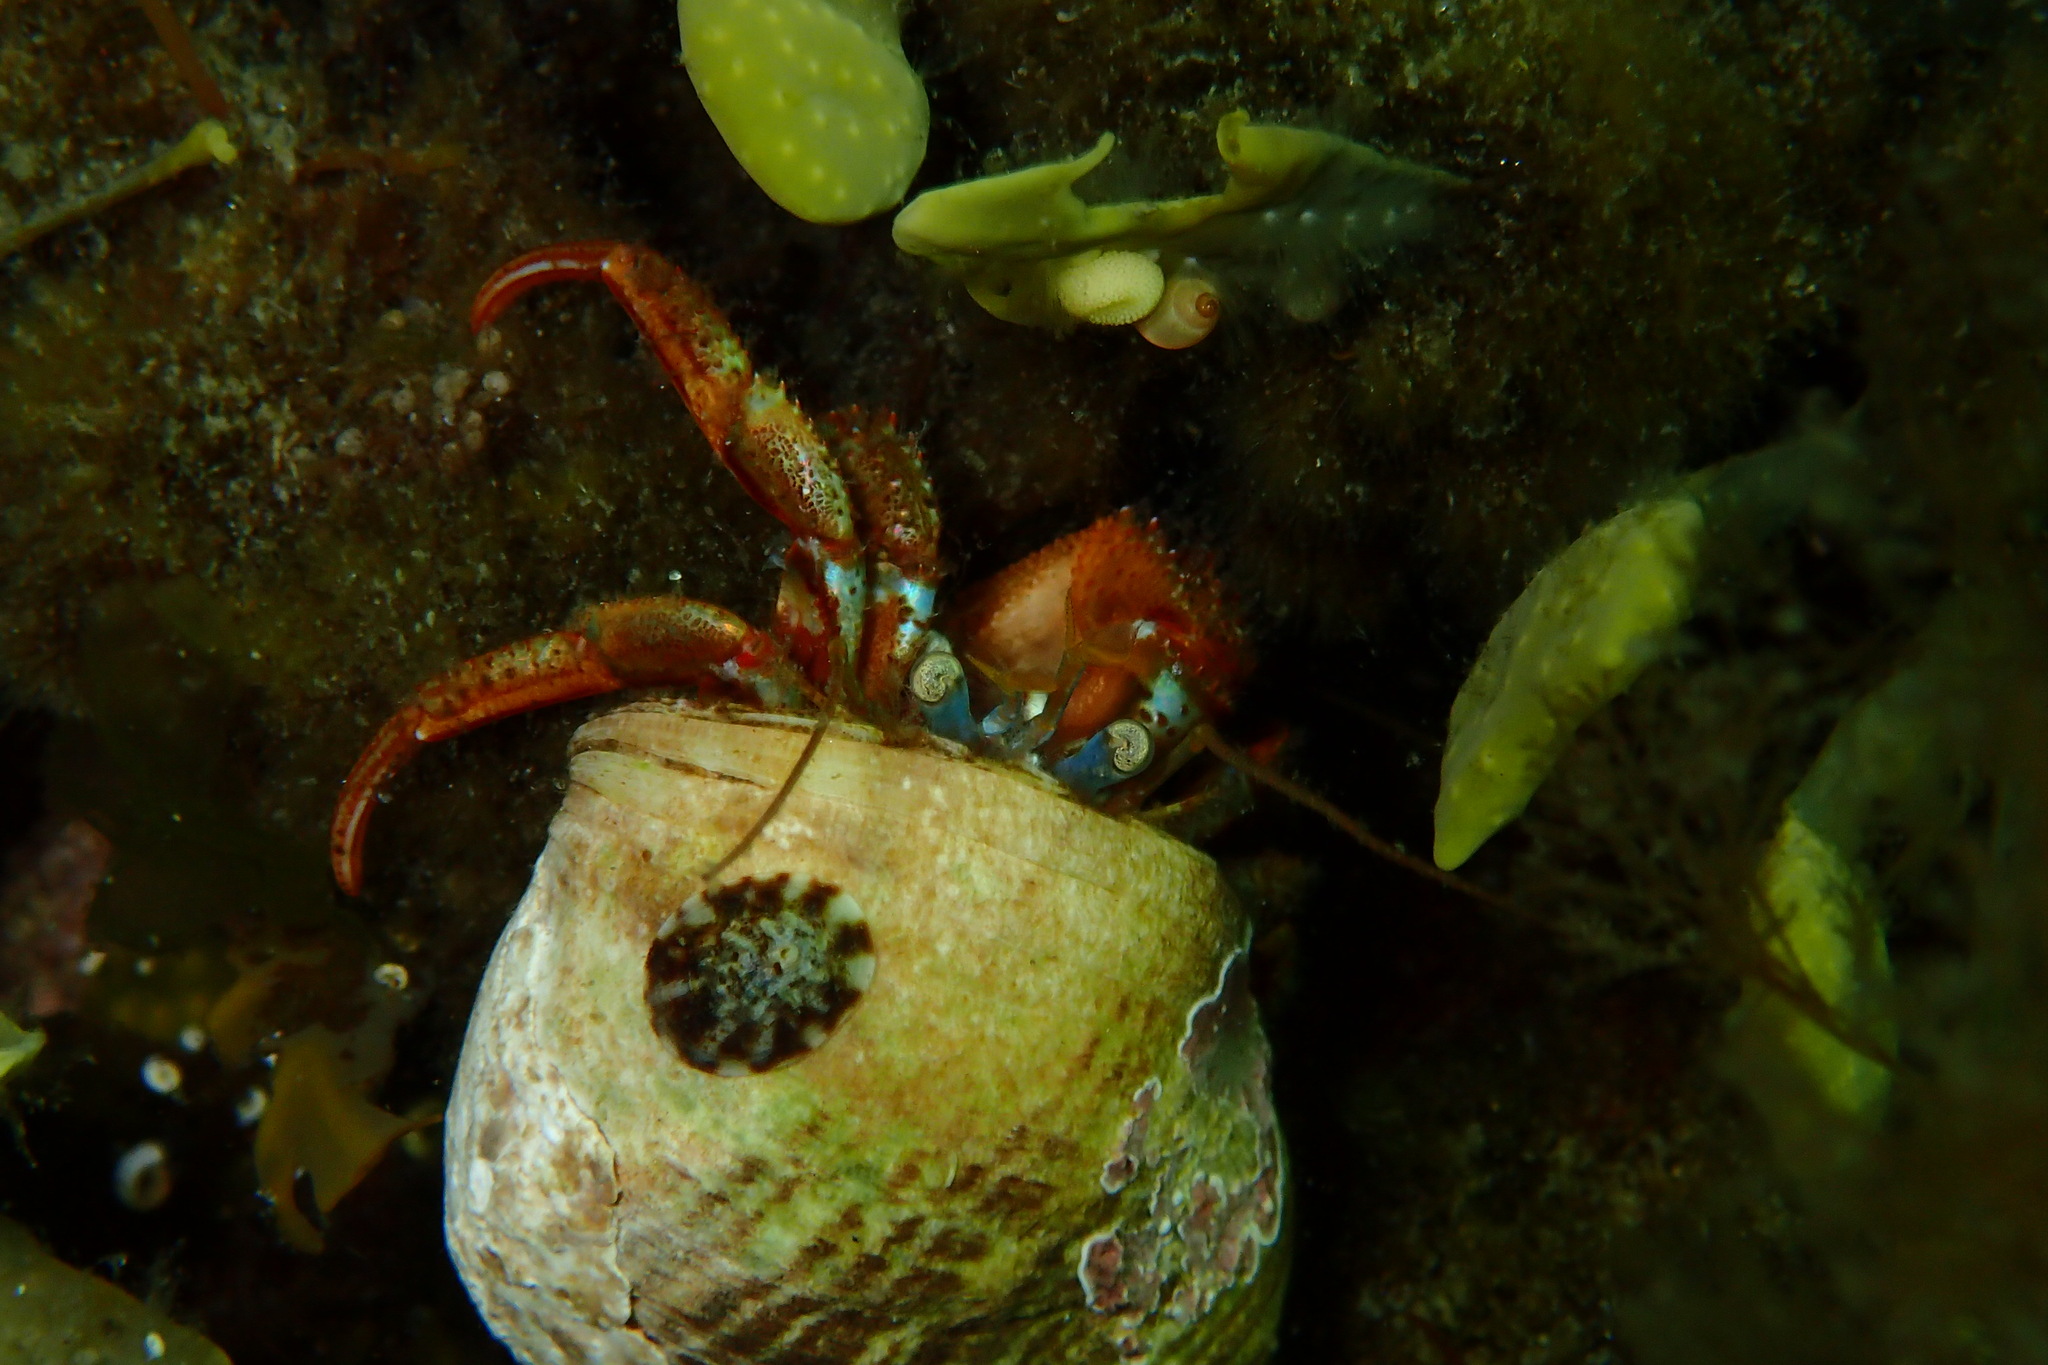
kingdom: Animalia
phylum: Arthropoda
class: Malacostraca
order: Decapoda
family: Paguridae
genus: Pagurus
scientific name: Pagurus acadianus
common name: Acadian hermit crab
